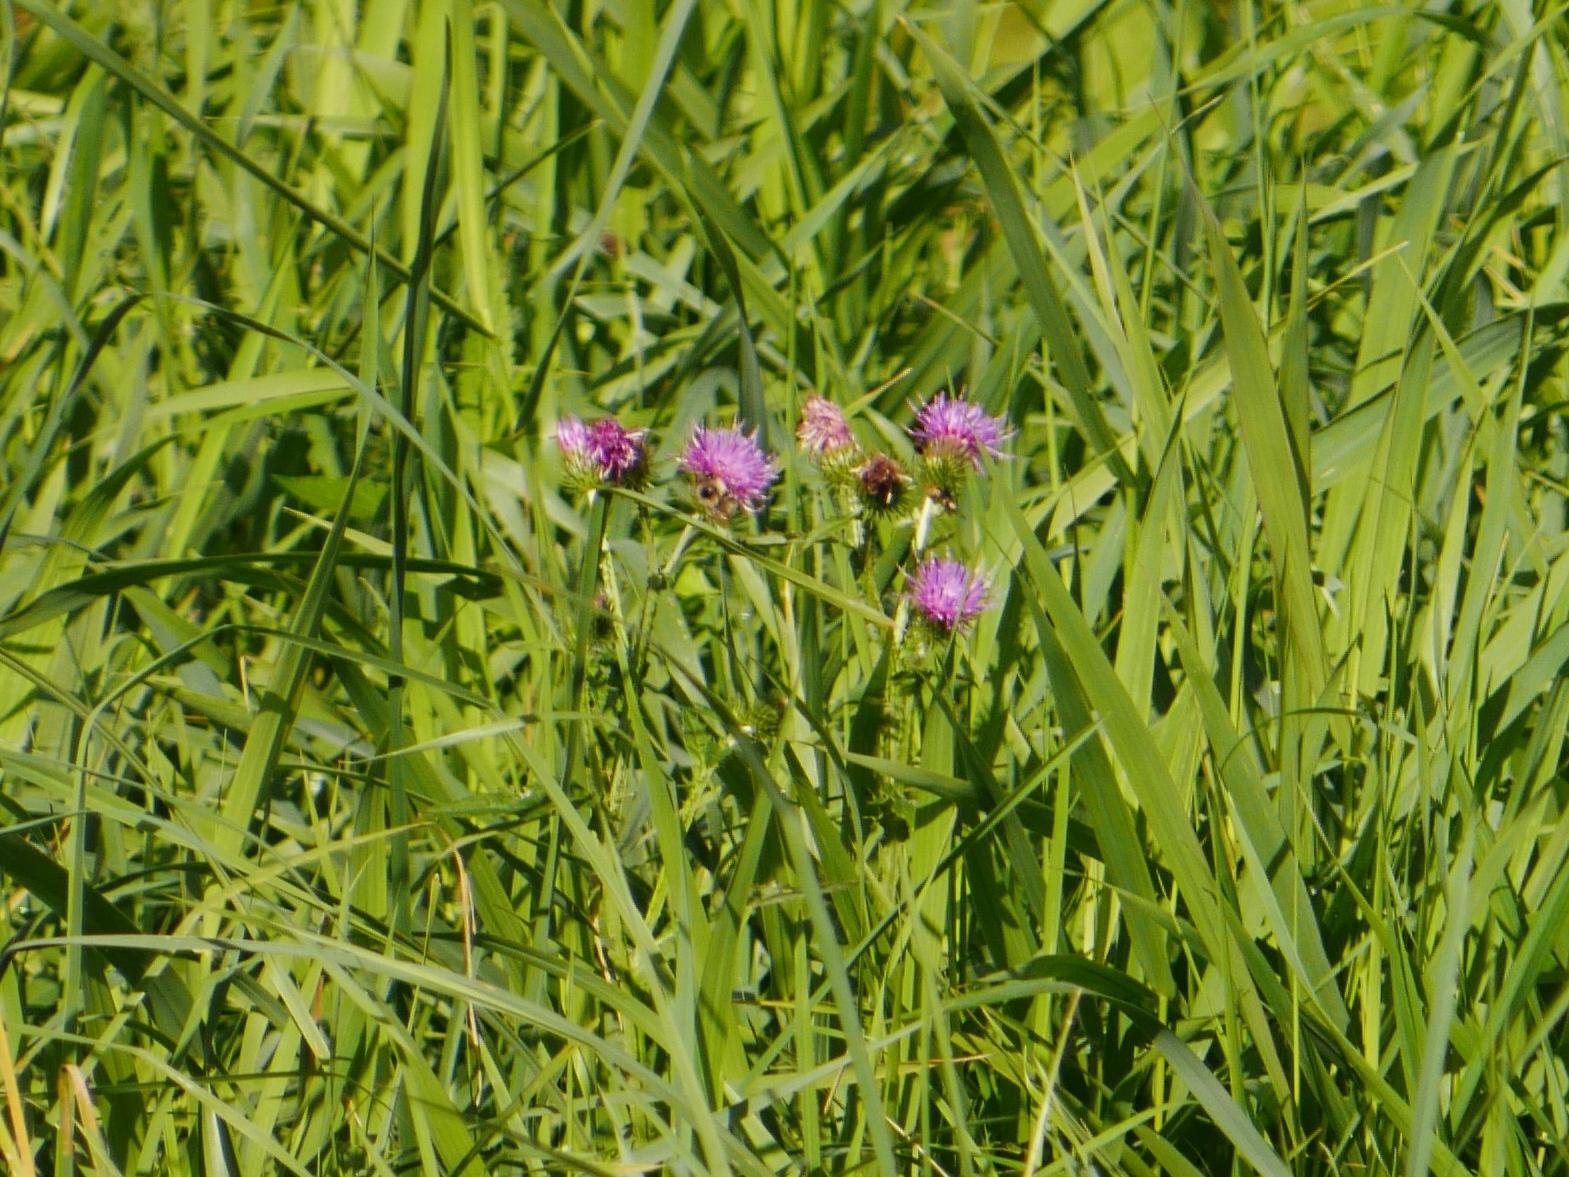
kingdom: Plantae
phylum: Tracheophyta
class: Magnoliopsida
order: Asterales
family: Asteraceae
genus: Cirsium
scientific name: Cirsium arvense
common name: Creeping thistle
